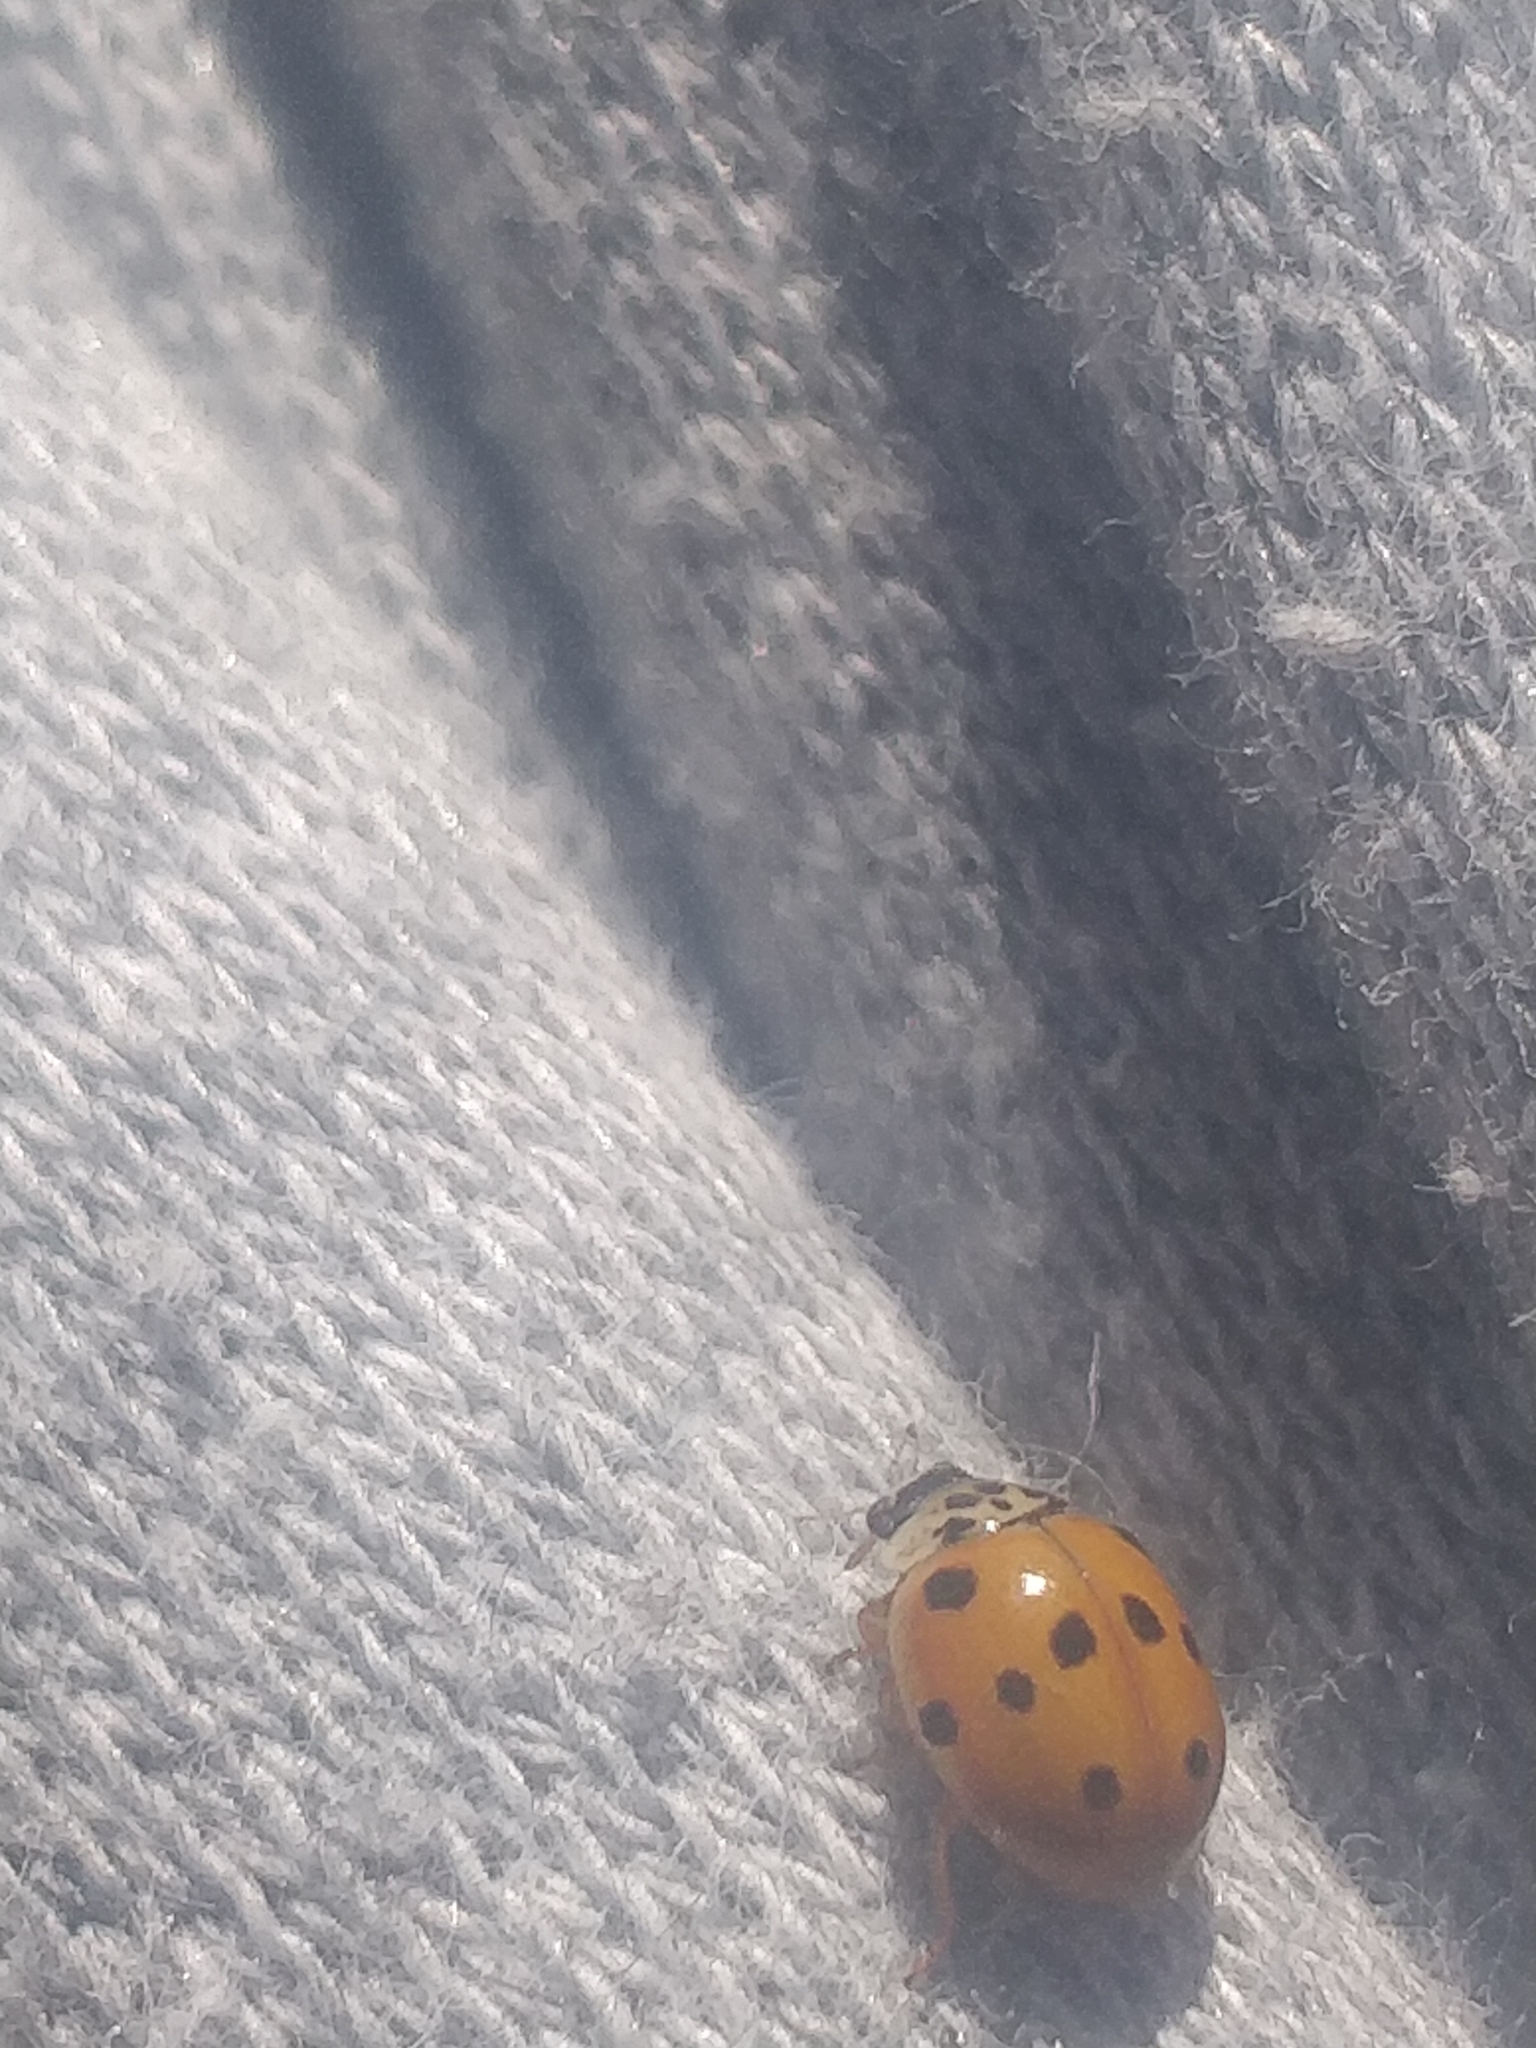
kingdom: Animalia
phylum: Arthropoda
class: Insecta
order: Coleoptera
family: Coccinellidae
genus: Adalia
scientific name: Adalia decempunctata
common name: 10-spot ladybird
